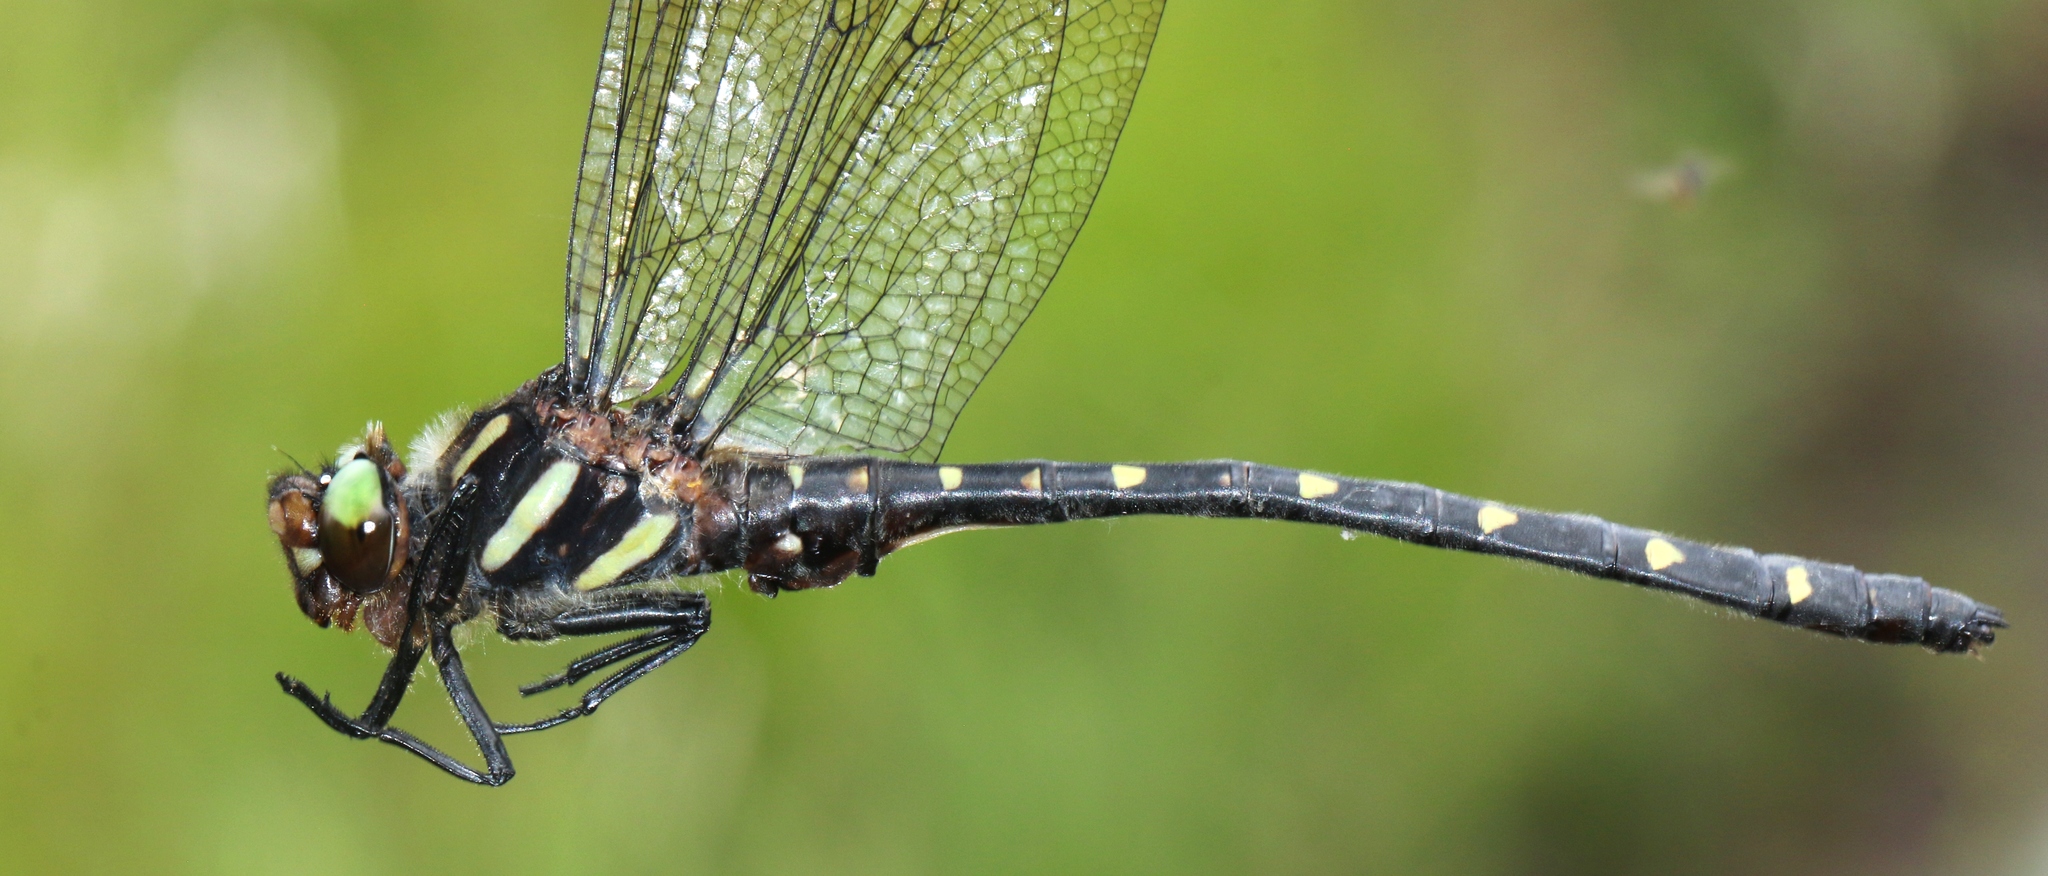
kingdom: Animalia
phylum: Arthropoda
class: Insecta
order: Odonata
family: Cordulegastridae
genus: Cordulegaster
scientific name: Cordulegaster maculata
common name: Twin-spotted spiketail
